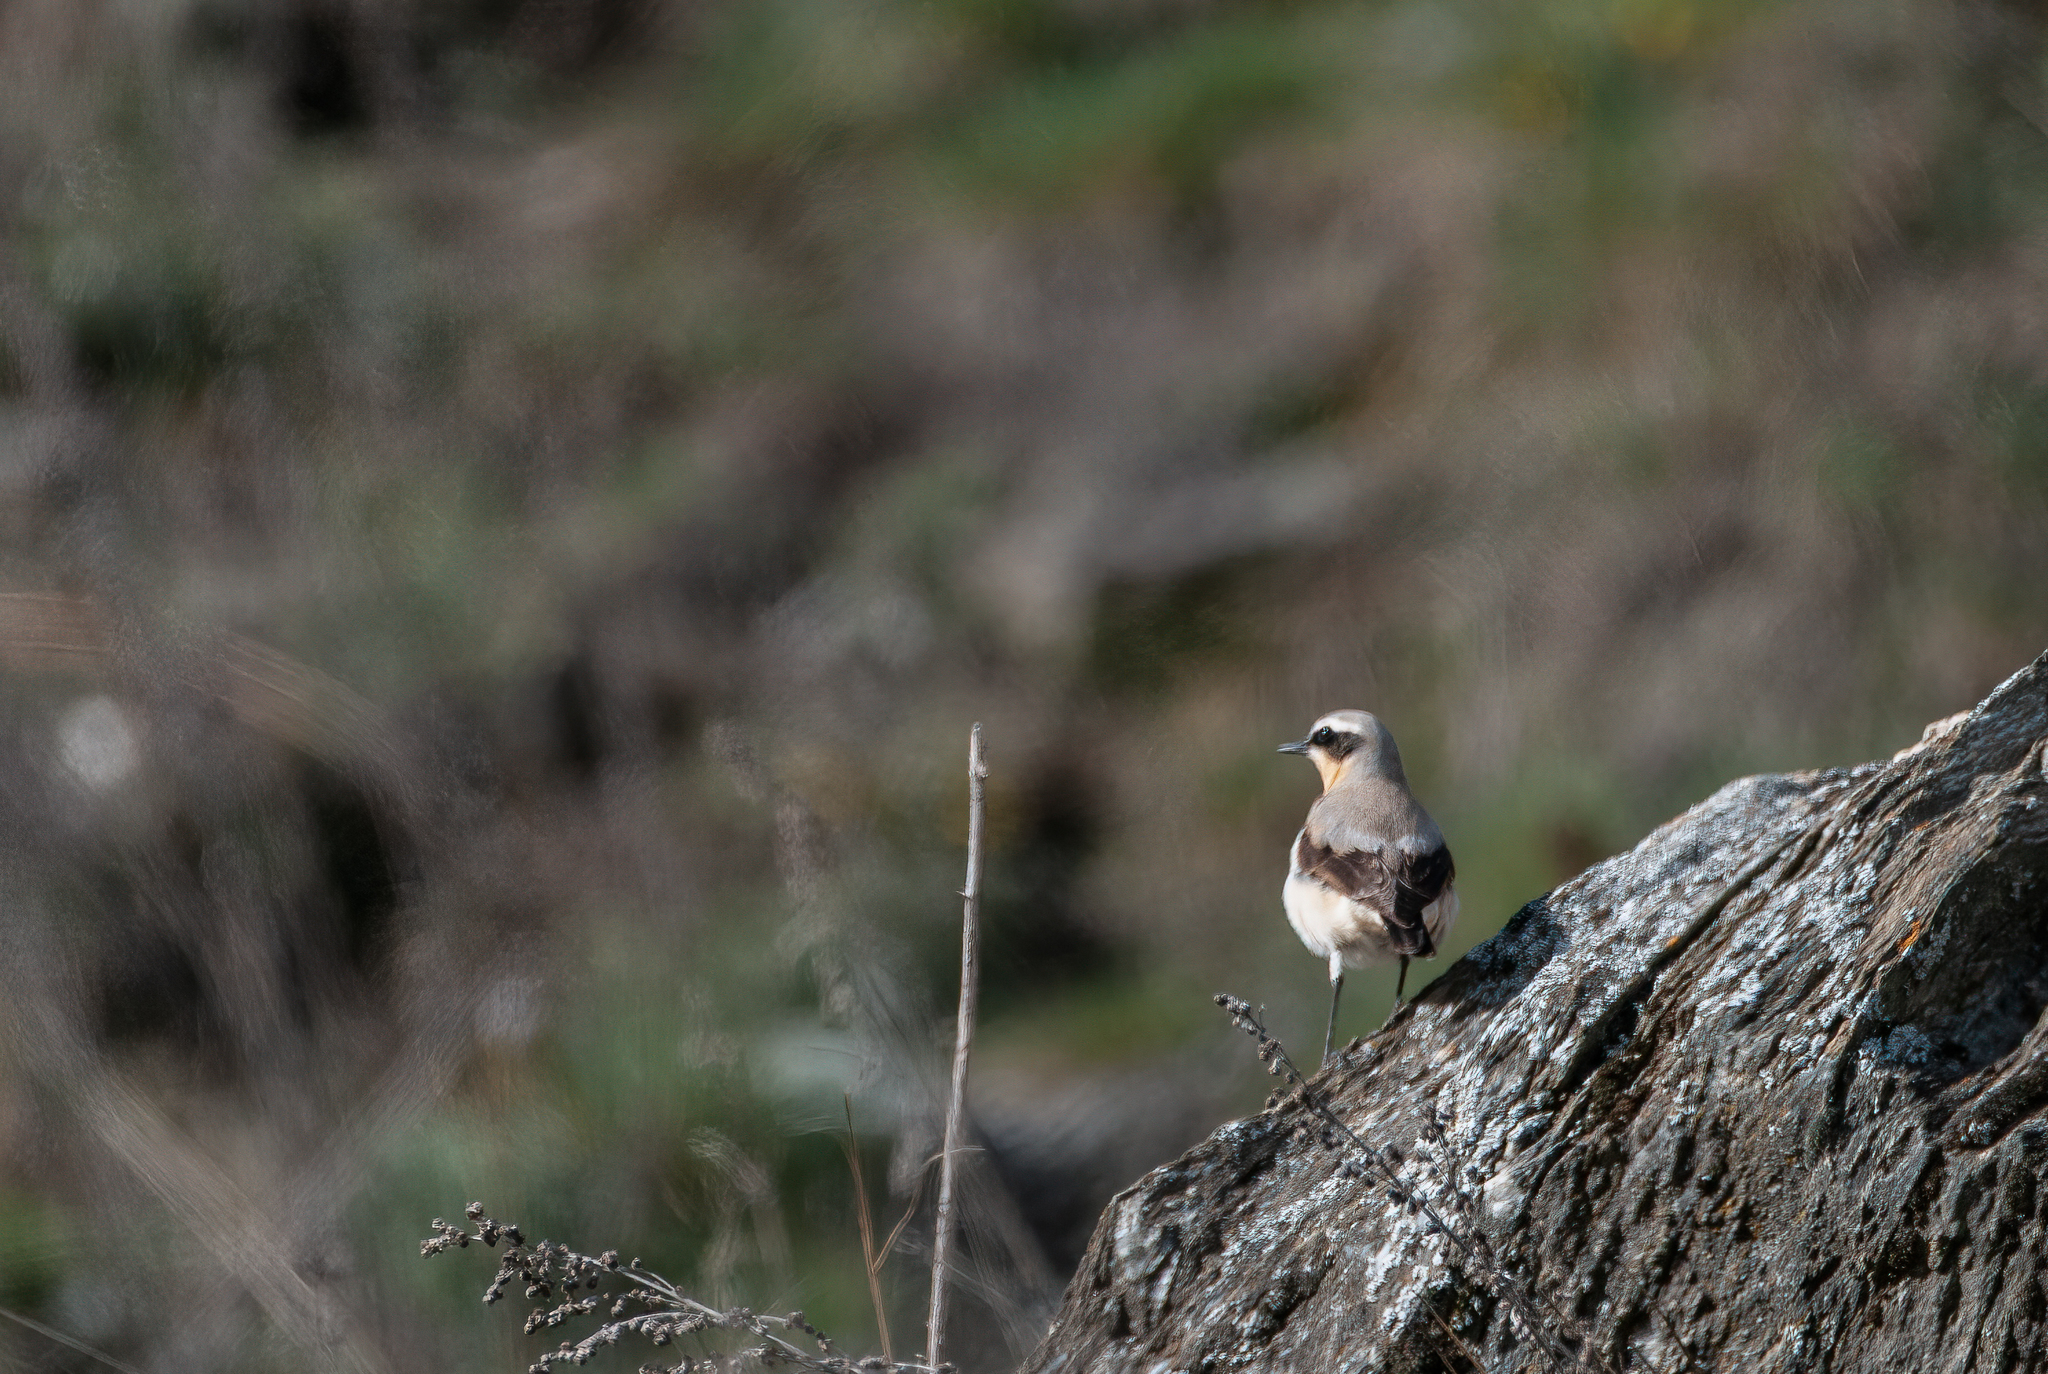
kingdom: Animalia
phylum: Chordata
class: Aves
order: Passeriformes
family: Muscicapidae
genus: Oenanthe
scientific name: Oenanthe oenanthe
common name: Northern wheatear
